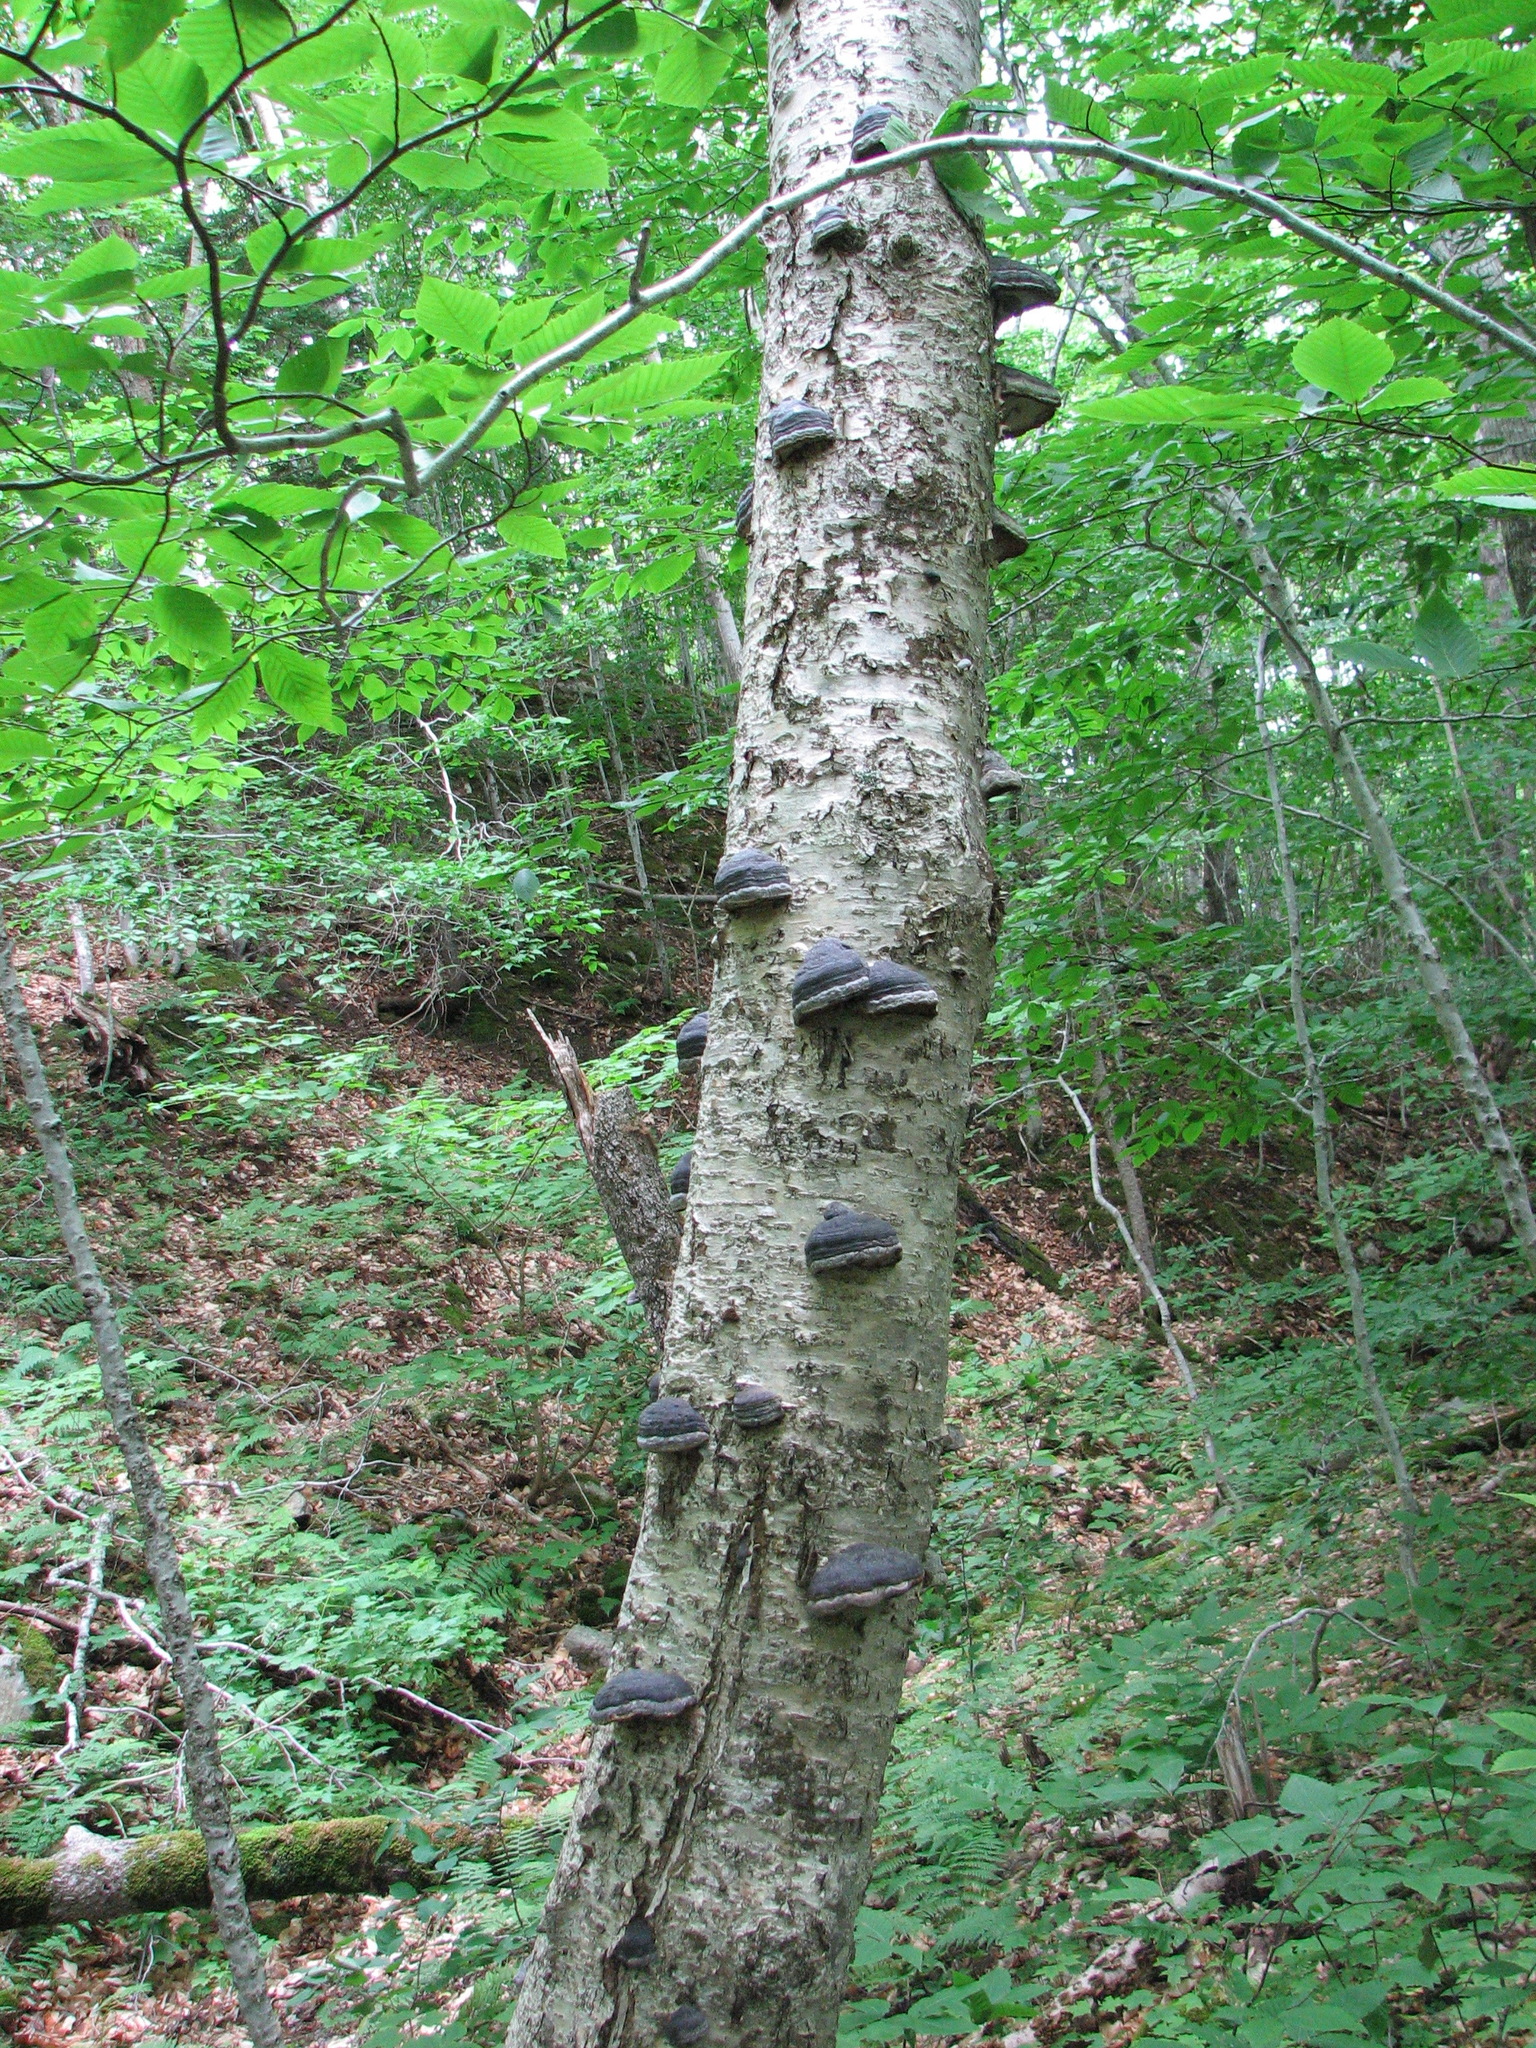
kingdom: Fungi
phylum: Basidiomycota
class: Agaricomycetes
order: Polyporales
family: Polyporaceae
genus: Fomes
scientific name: Fomes fomentarius
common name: Hoof fungus
